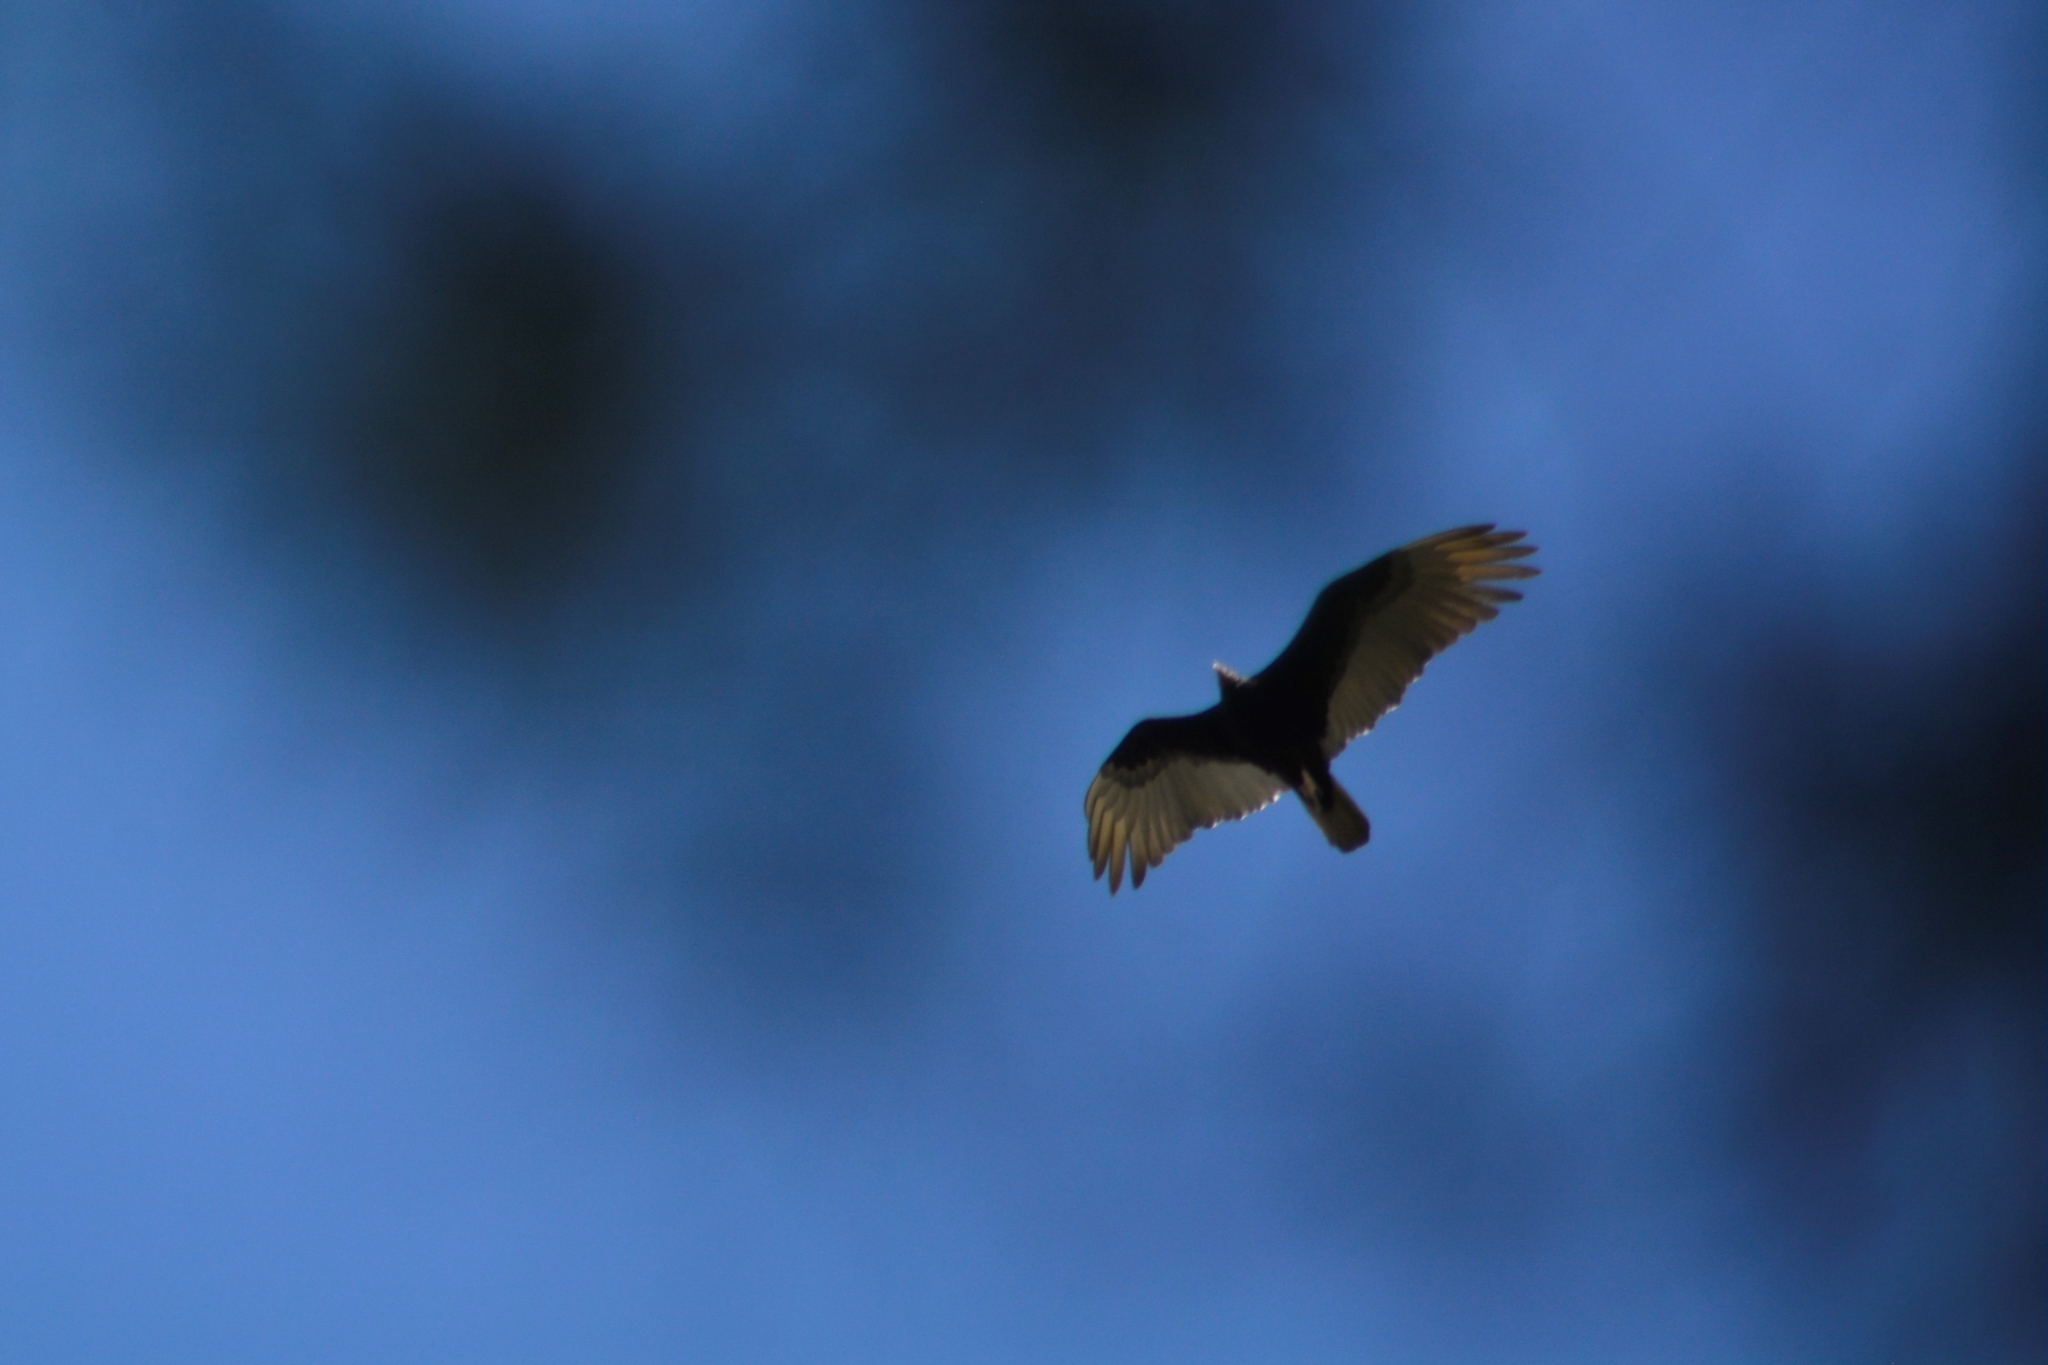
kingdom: Animalia
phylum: Chordata
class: Aves
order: Accipitriformes
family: Cathartidae
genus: Cathartes
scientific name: Cathartes aura
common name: Turkey vulture
